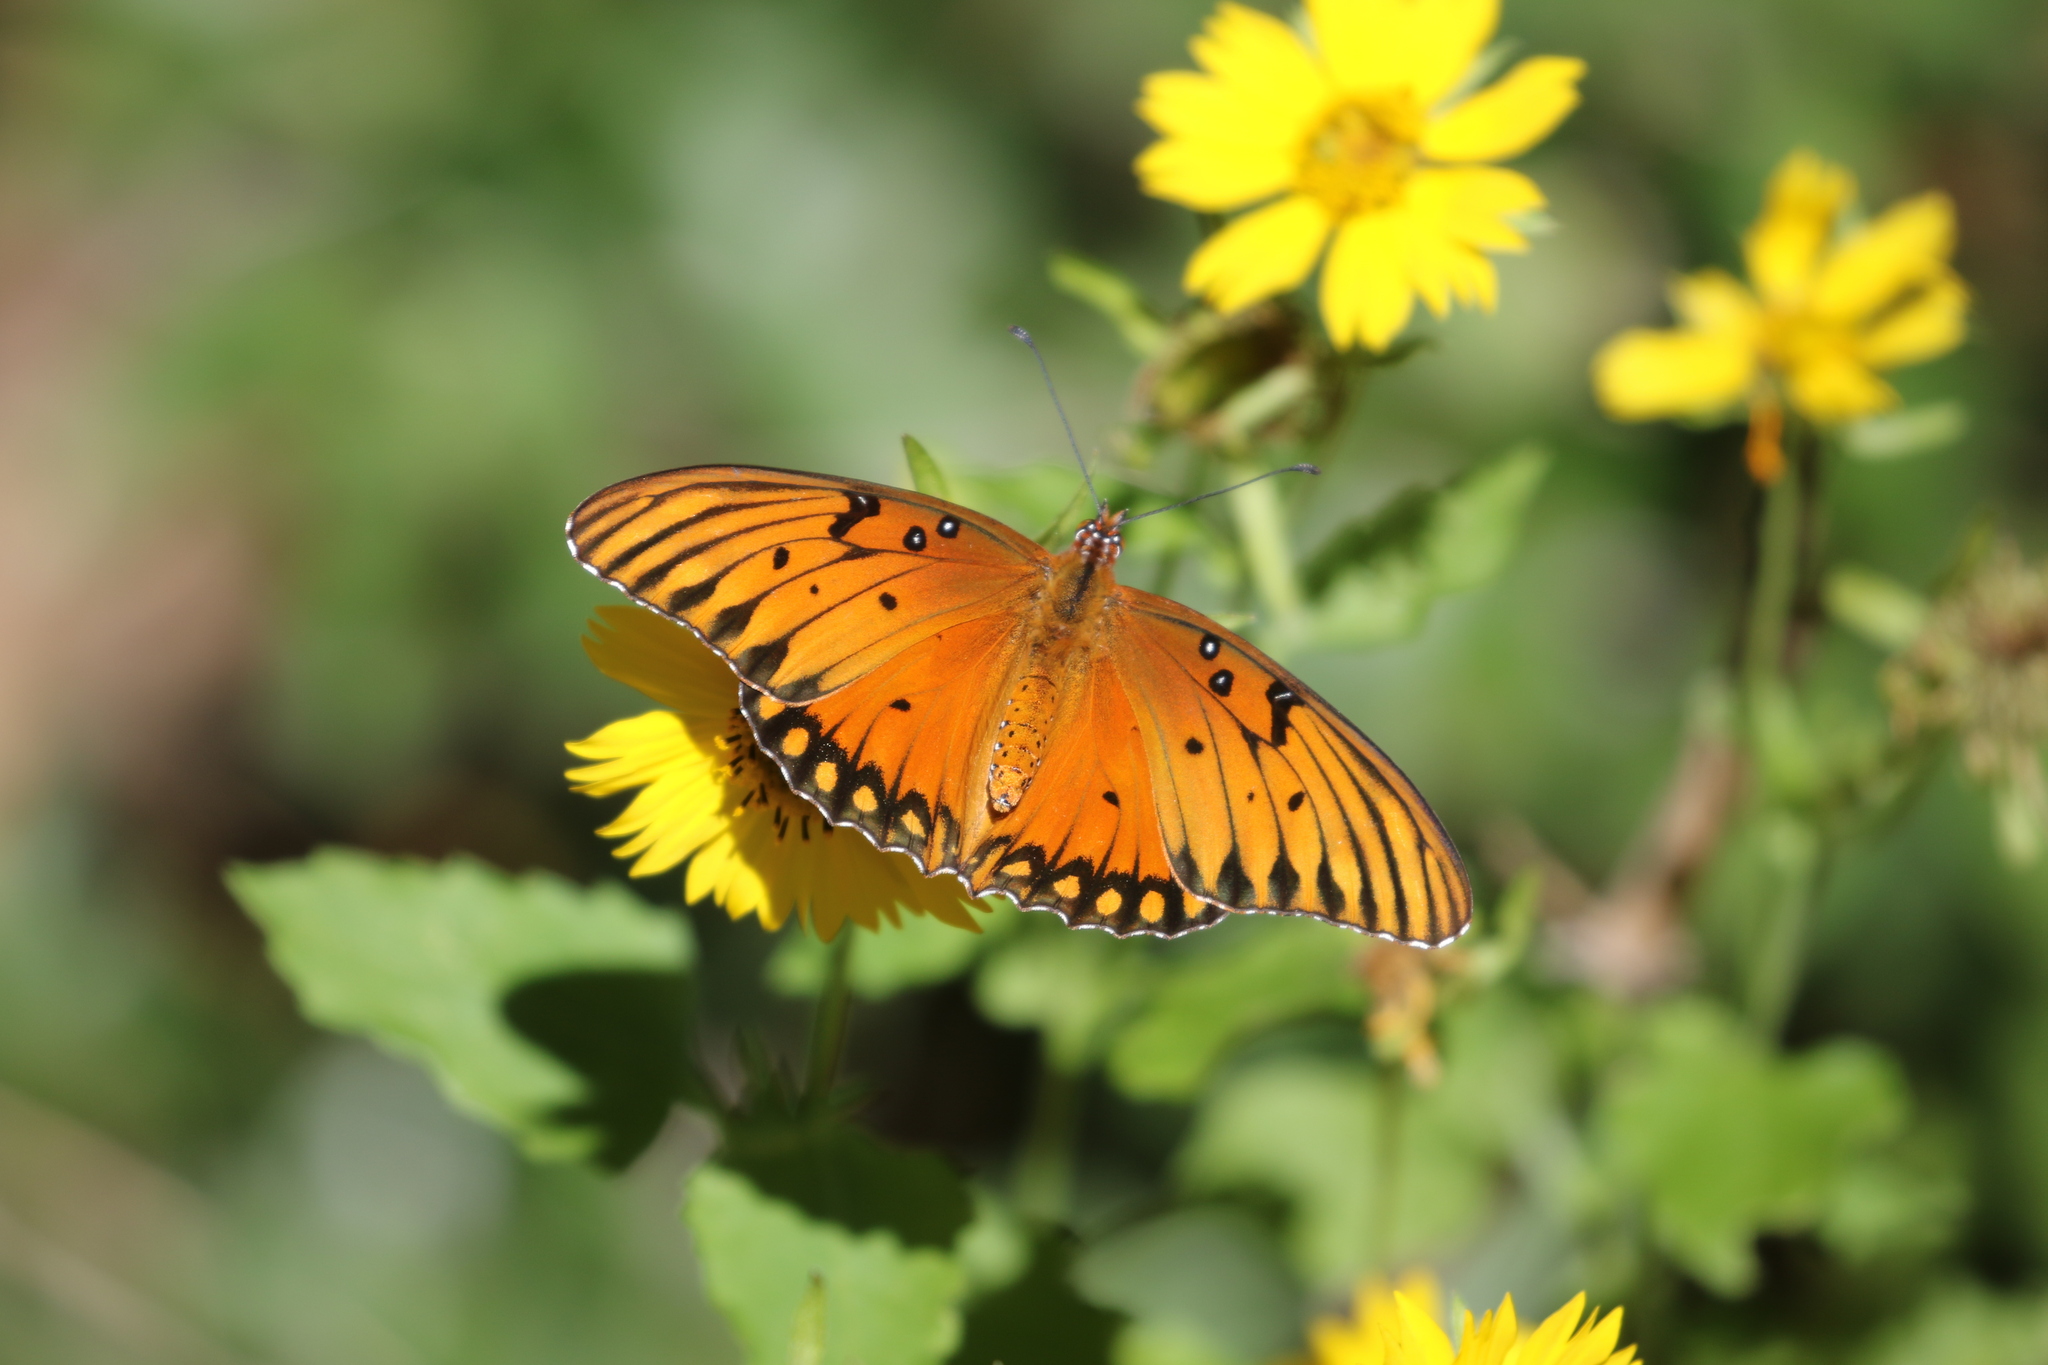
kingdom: Animalia
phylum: Arthropoda
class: Insecta
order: Lepidoptera
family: Nymphalidae
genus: Dione
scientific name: Dione vanillae
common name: Gulf fritillary
